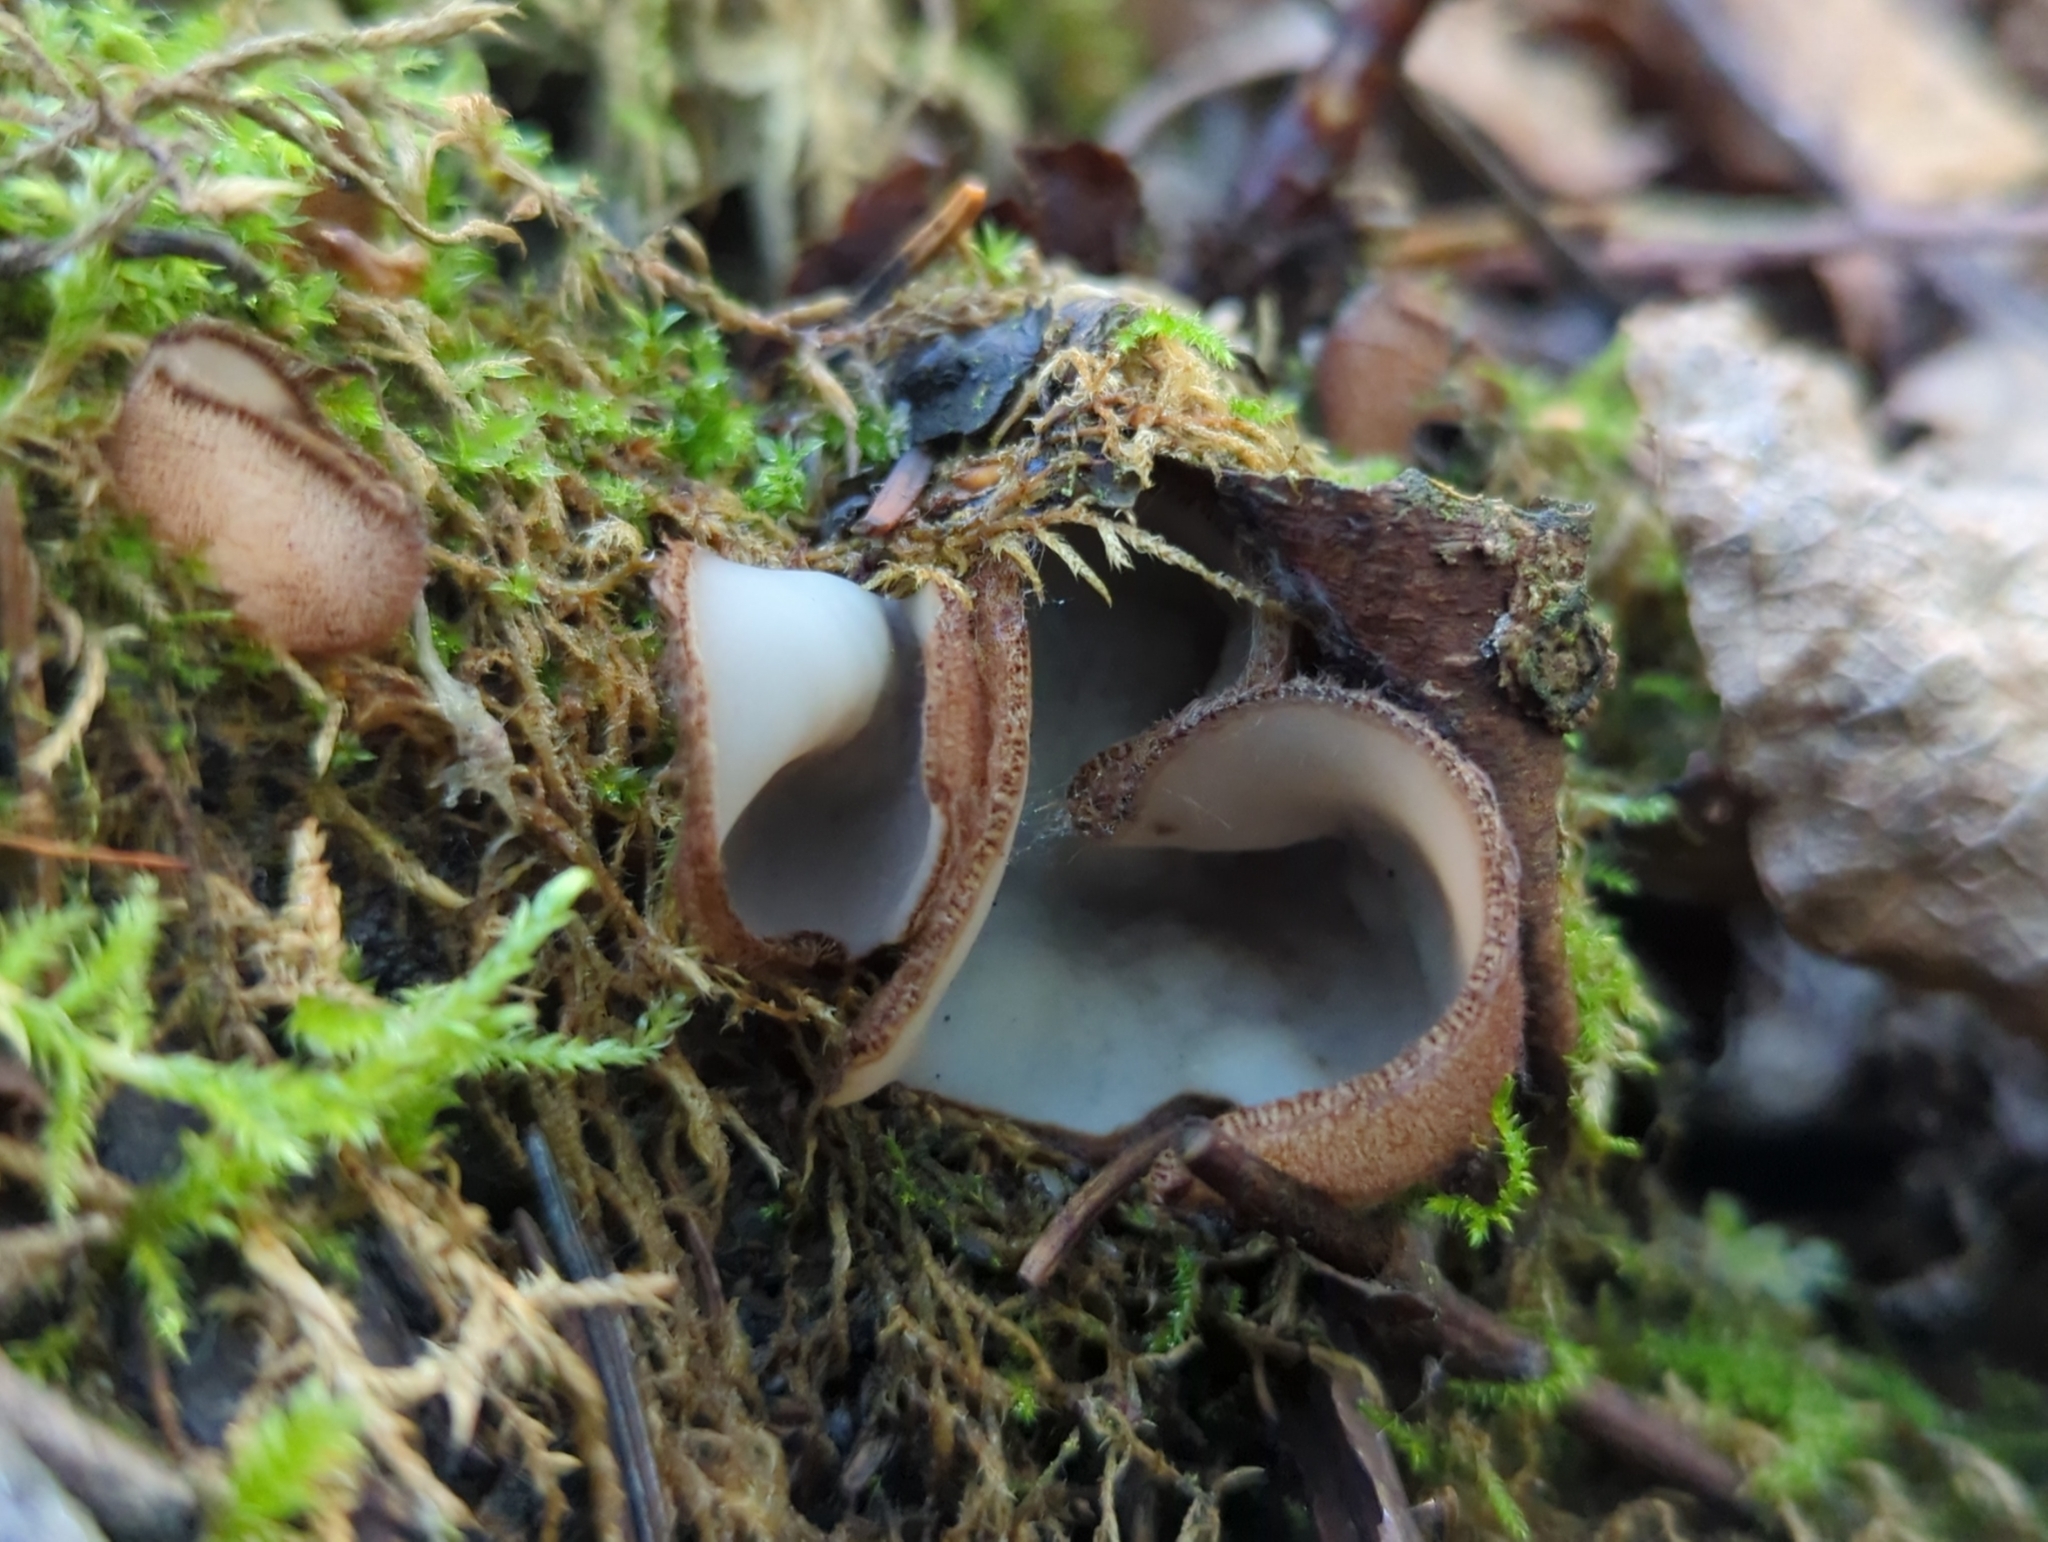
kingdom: Fungi
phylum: Ascomycota
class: Pezizomycetes
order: Pezizales
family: Pyronemataceae
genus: Humaria
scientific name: Humaria hemisphaerica
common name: Glazed cup
